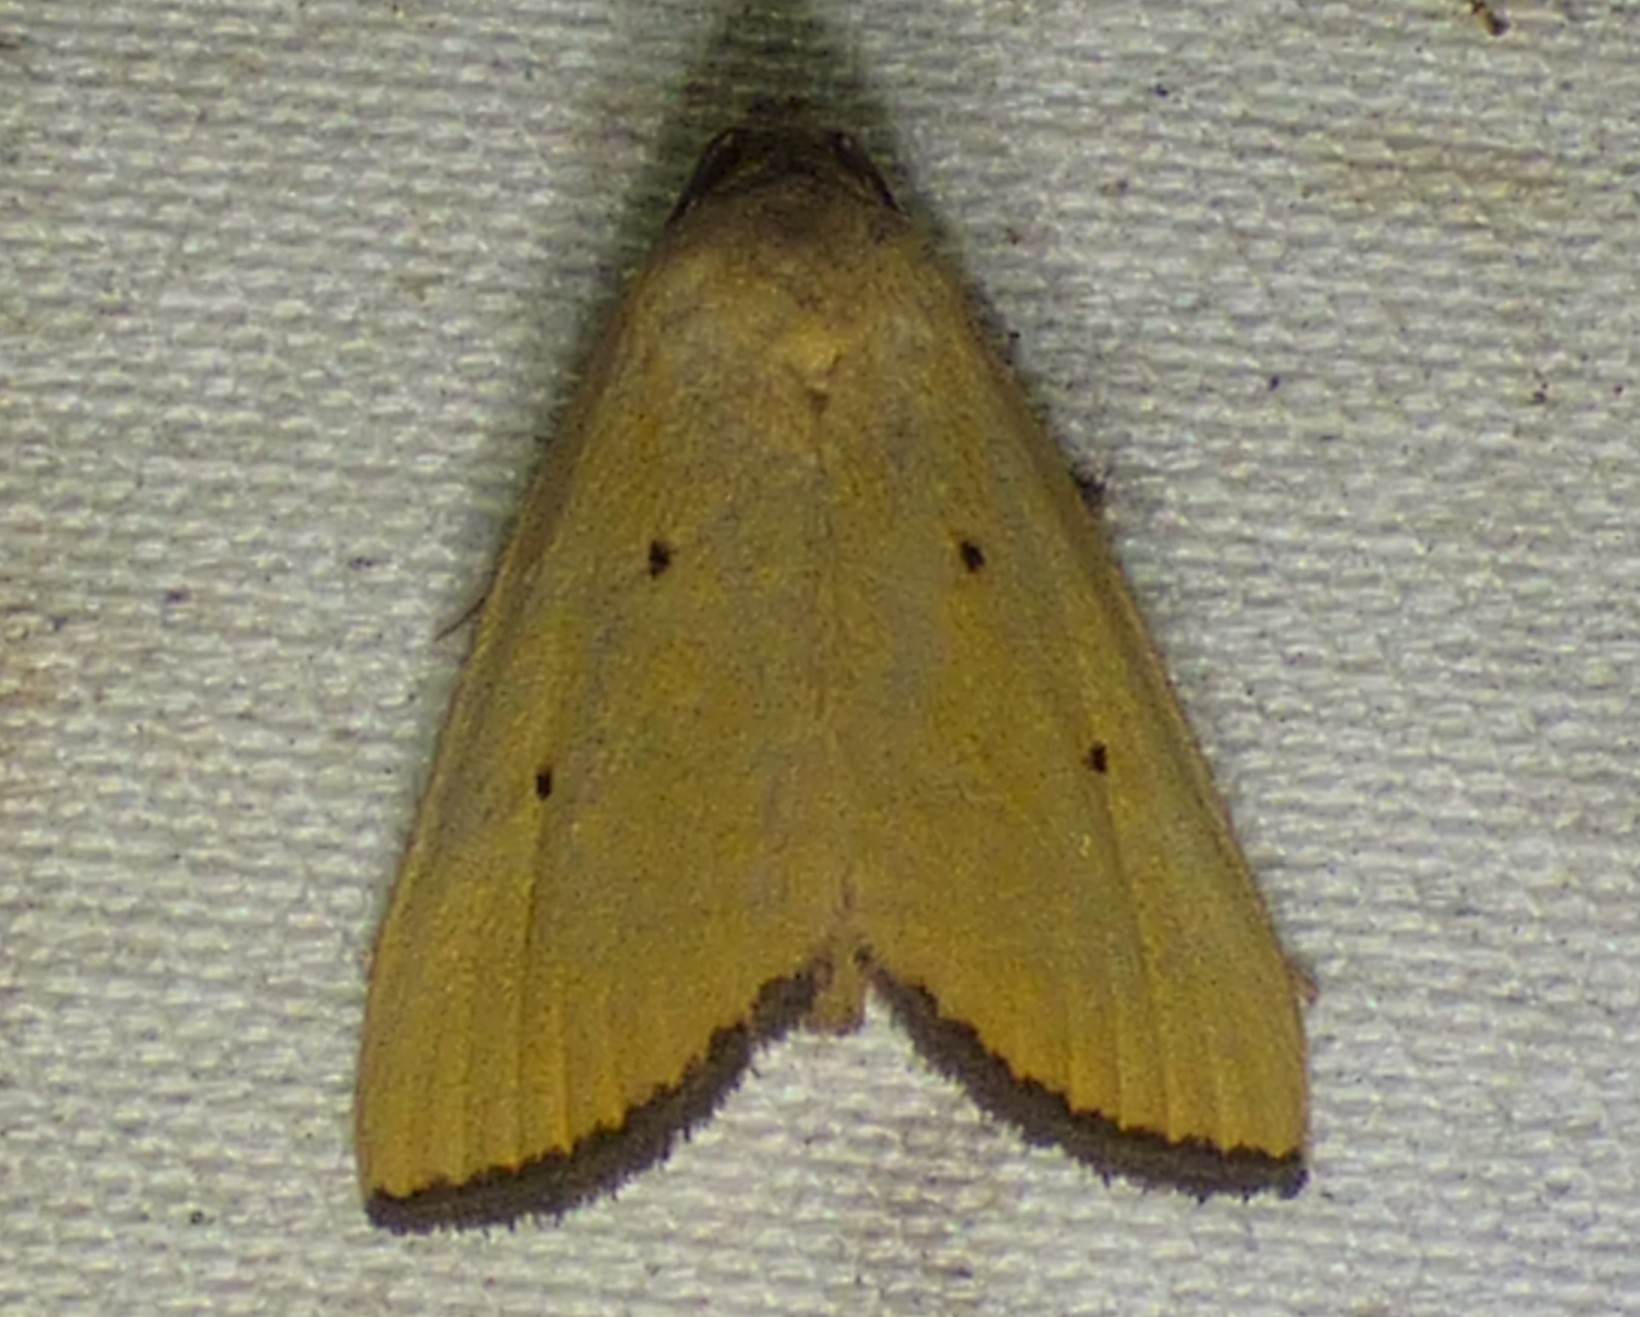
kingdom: Animalia
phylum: Arthropoda
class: Insecta
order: Lepidoptera
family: Noctuidae
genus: Marimatha
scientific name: Marimatha nigrofimbria
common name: Black-bordered lemon moth
